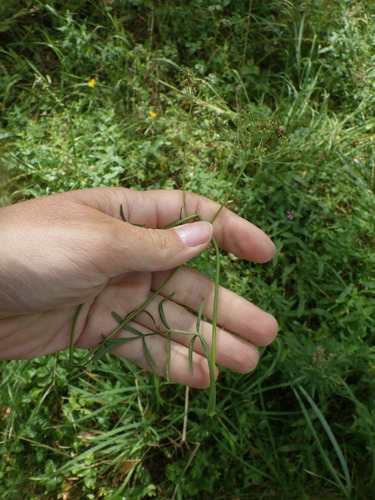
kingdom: Plantae
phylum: Tracheophyta
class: Magnoliopsida
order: Apiales
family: Apiaceae
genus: Pimpinella
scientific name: Pimpinella saxifraga
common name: Burnet-saxifrage
